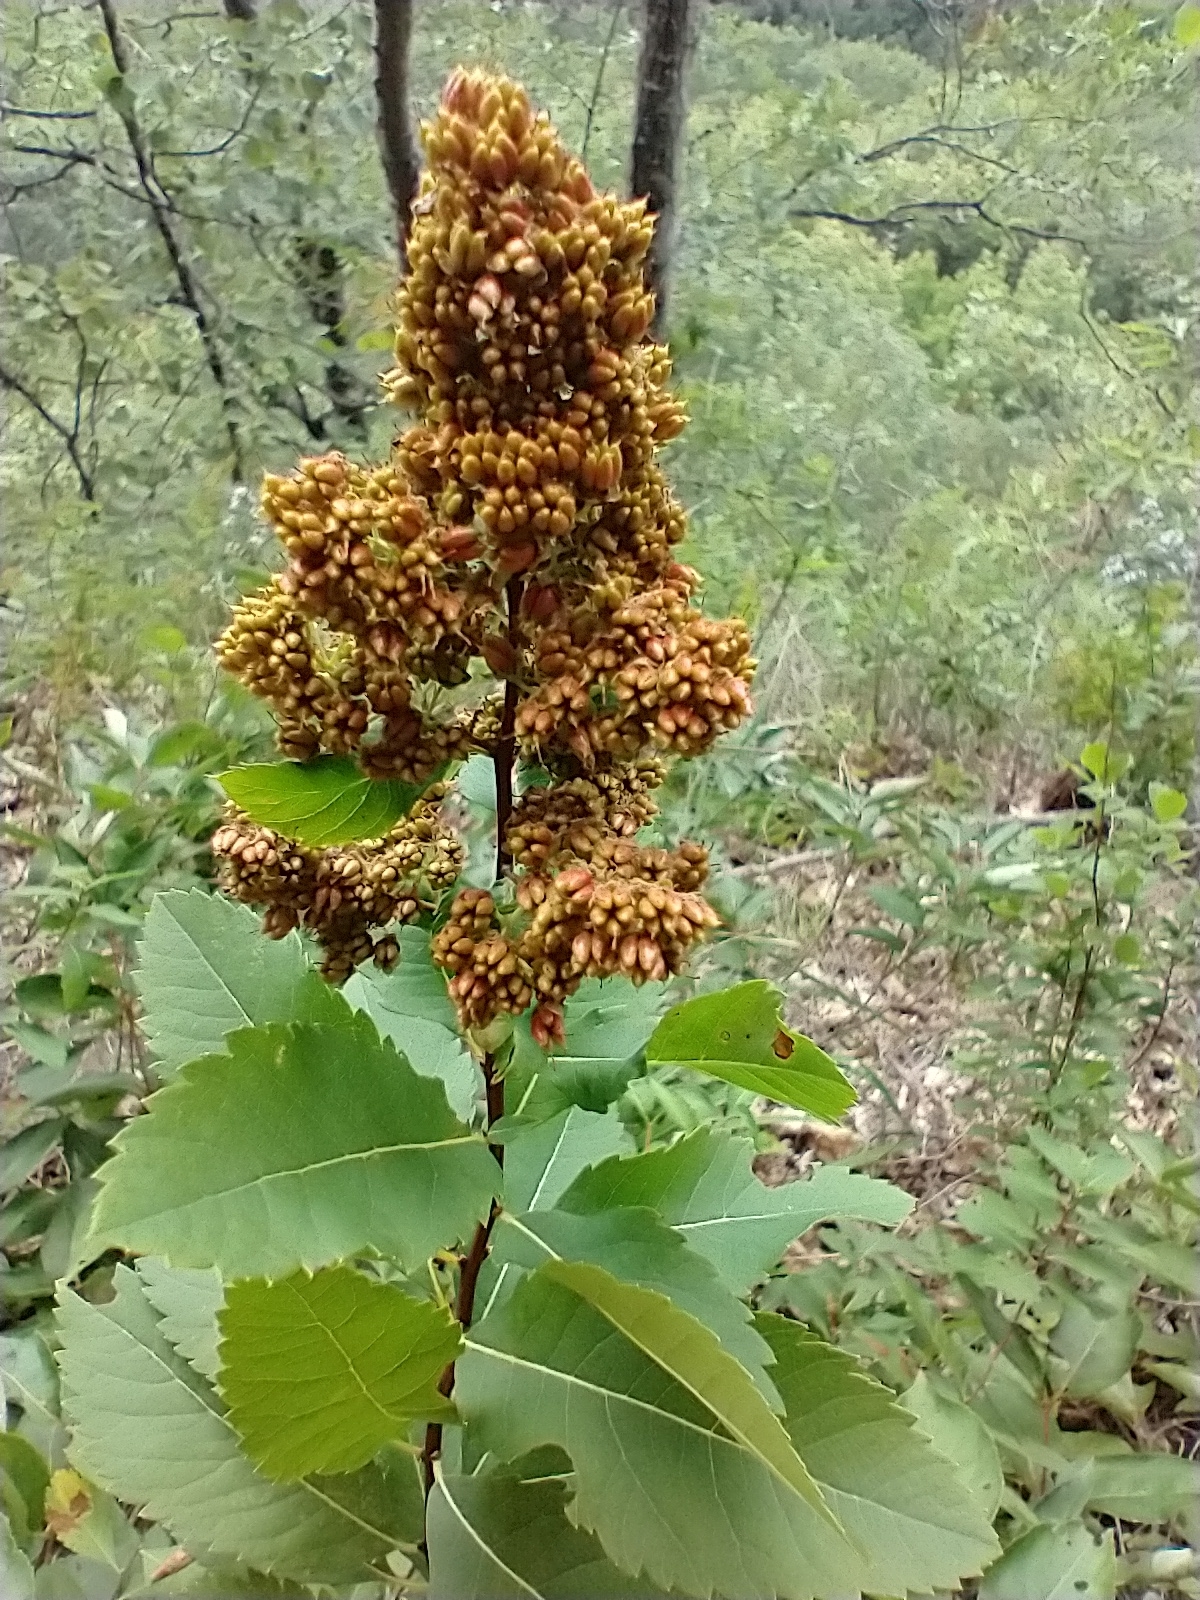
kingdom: Plantae
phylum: Tracheophyta
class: Magnoliopsida
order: Rosales
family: Rosaceae
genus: Spiraea
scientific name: Spiraea alba
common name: Pale bridewort
